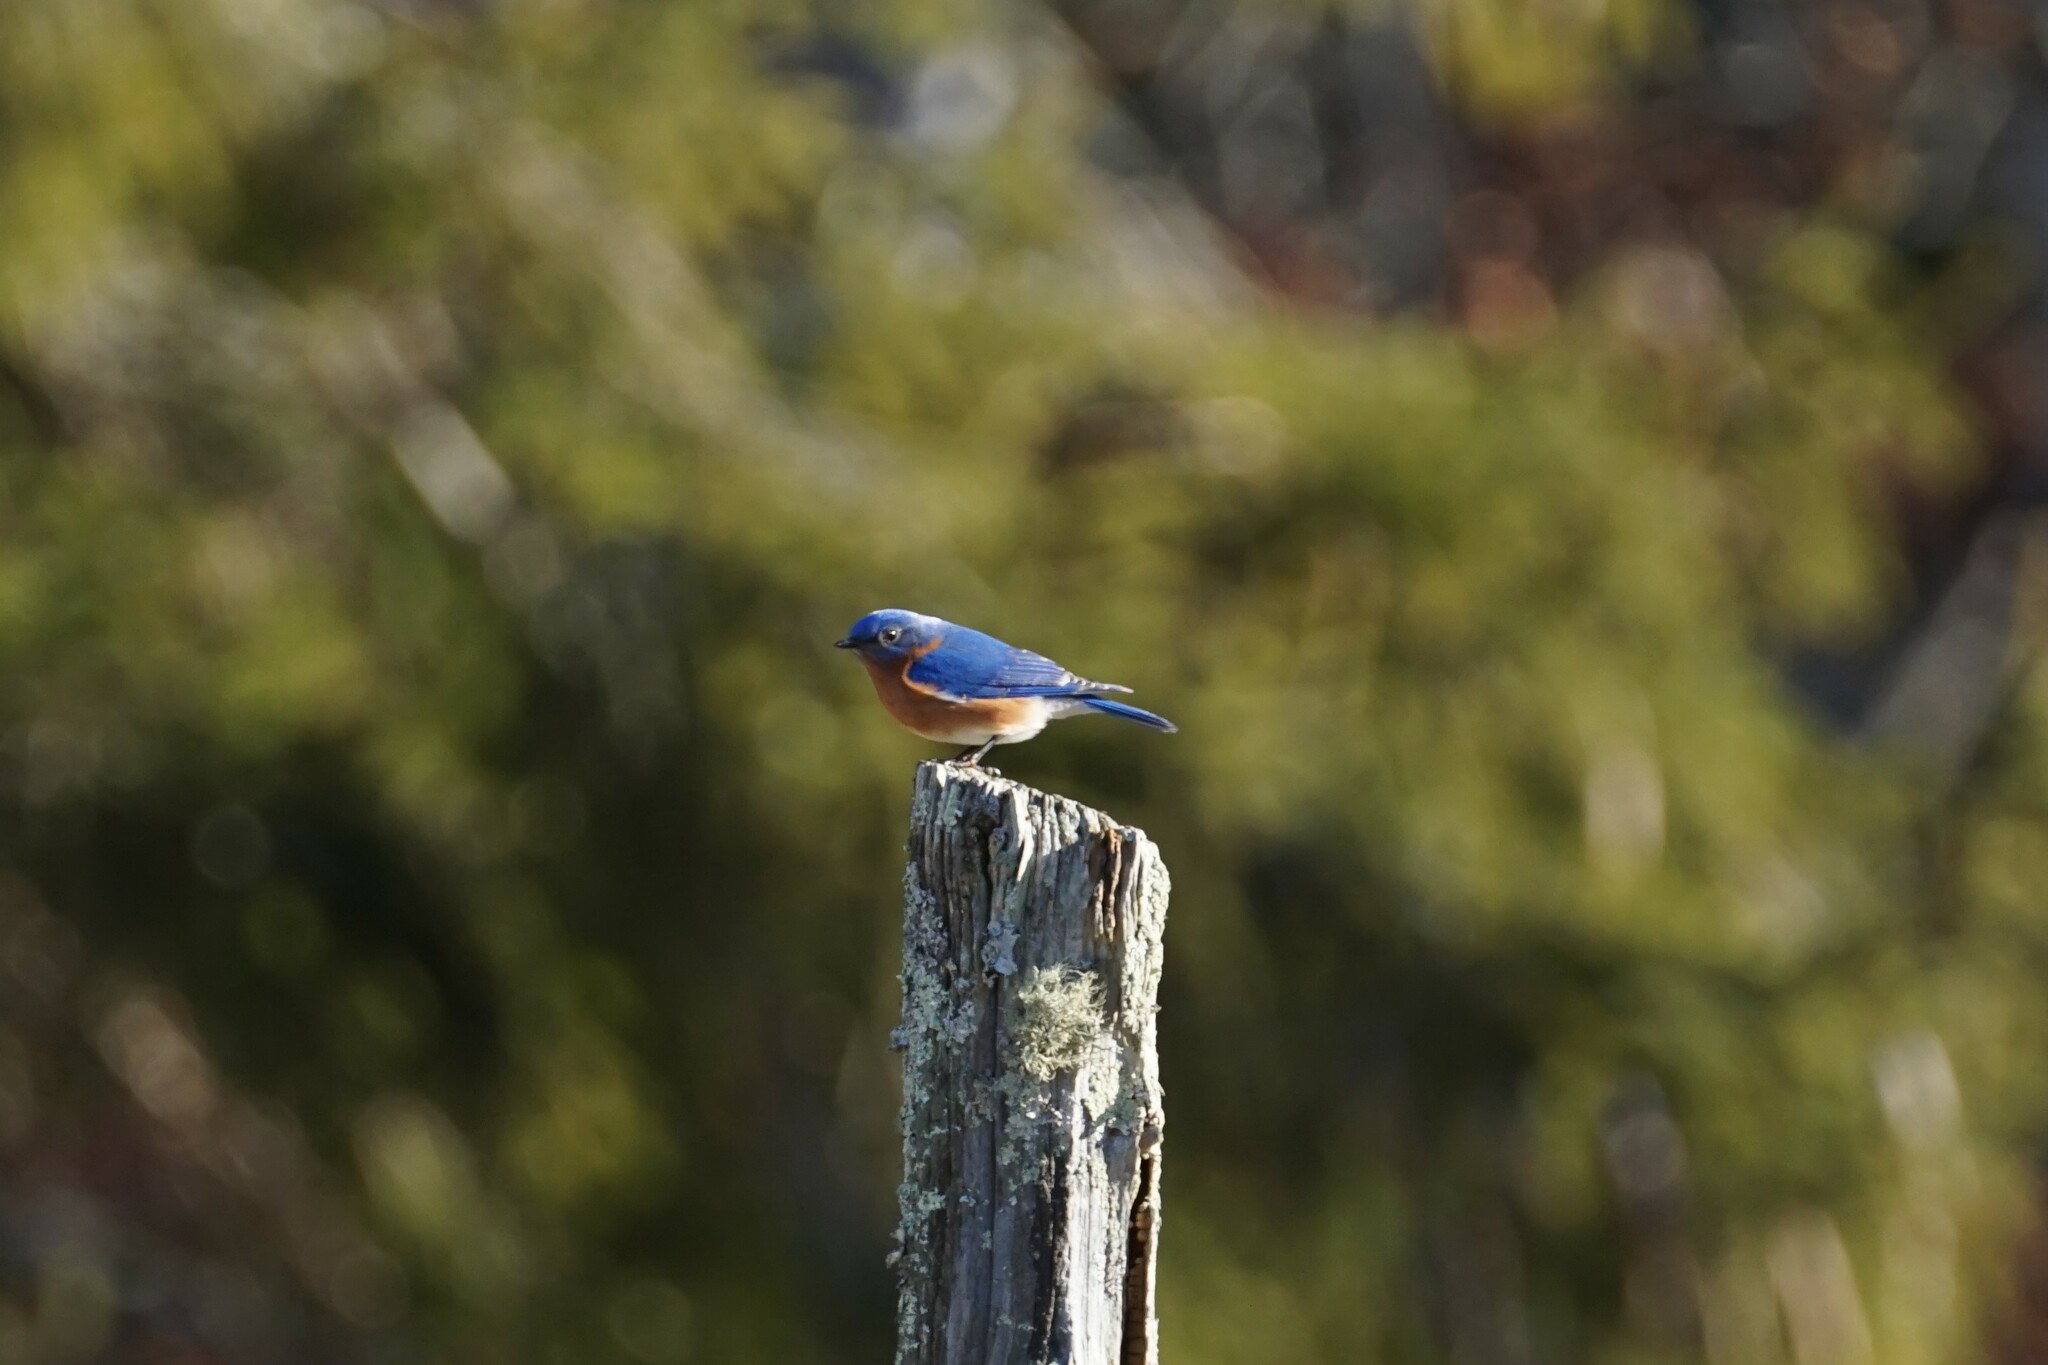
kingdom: Animalia
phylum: Chordata
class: Aves
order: Passeriformes
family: Turdidae
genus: Sialia
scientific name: Sialia sialis
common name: Eastern bluebird
